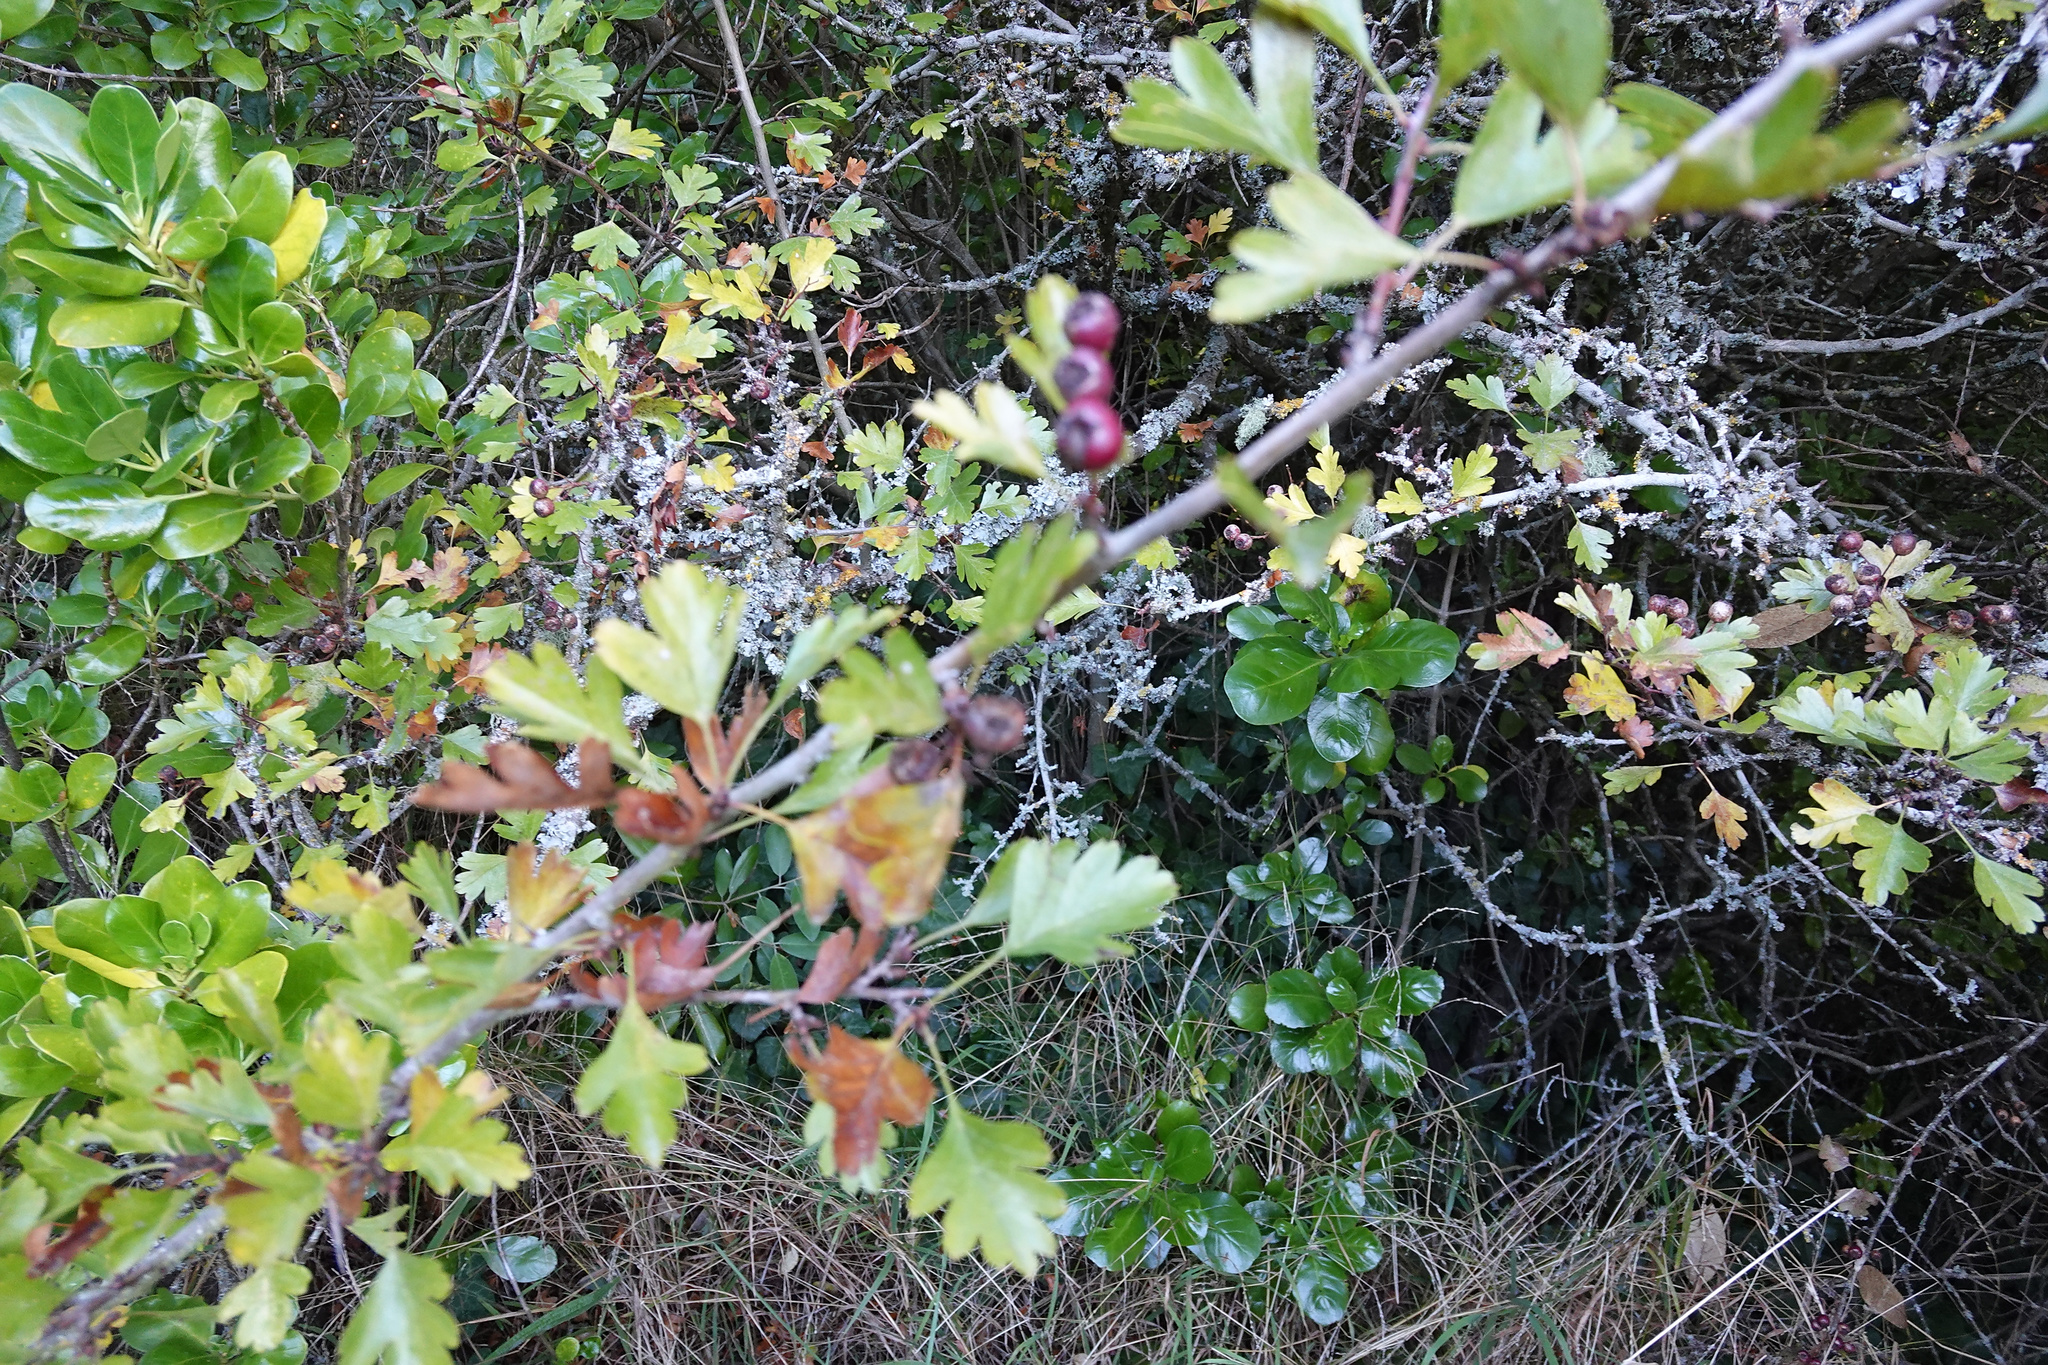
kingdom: Plantae
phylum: Tracheophyta
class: Magnoliopsida
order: Rosales
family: Rosaceae
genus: Crataegus
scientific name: Crataegus monogyna
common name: Hawthorn
